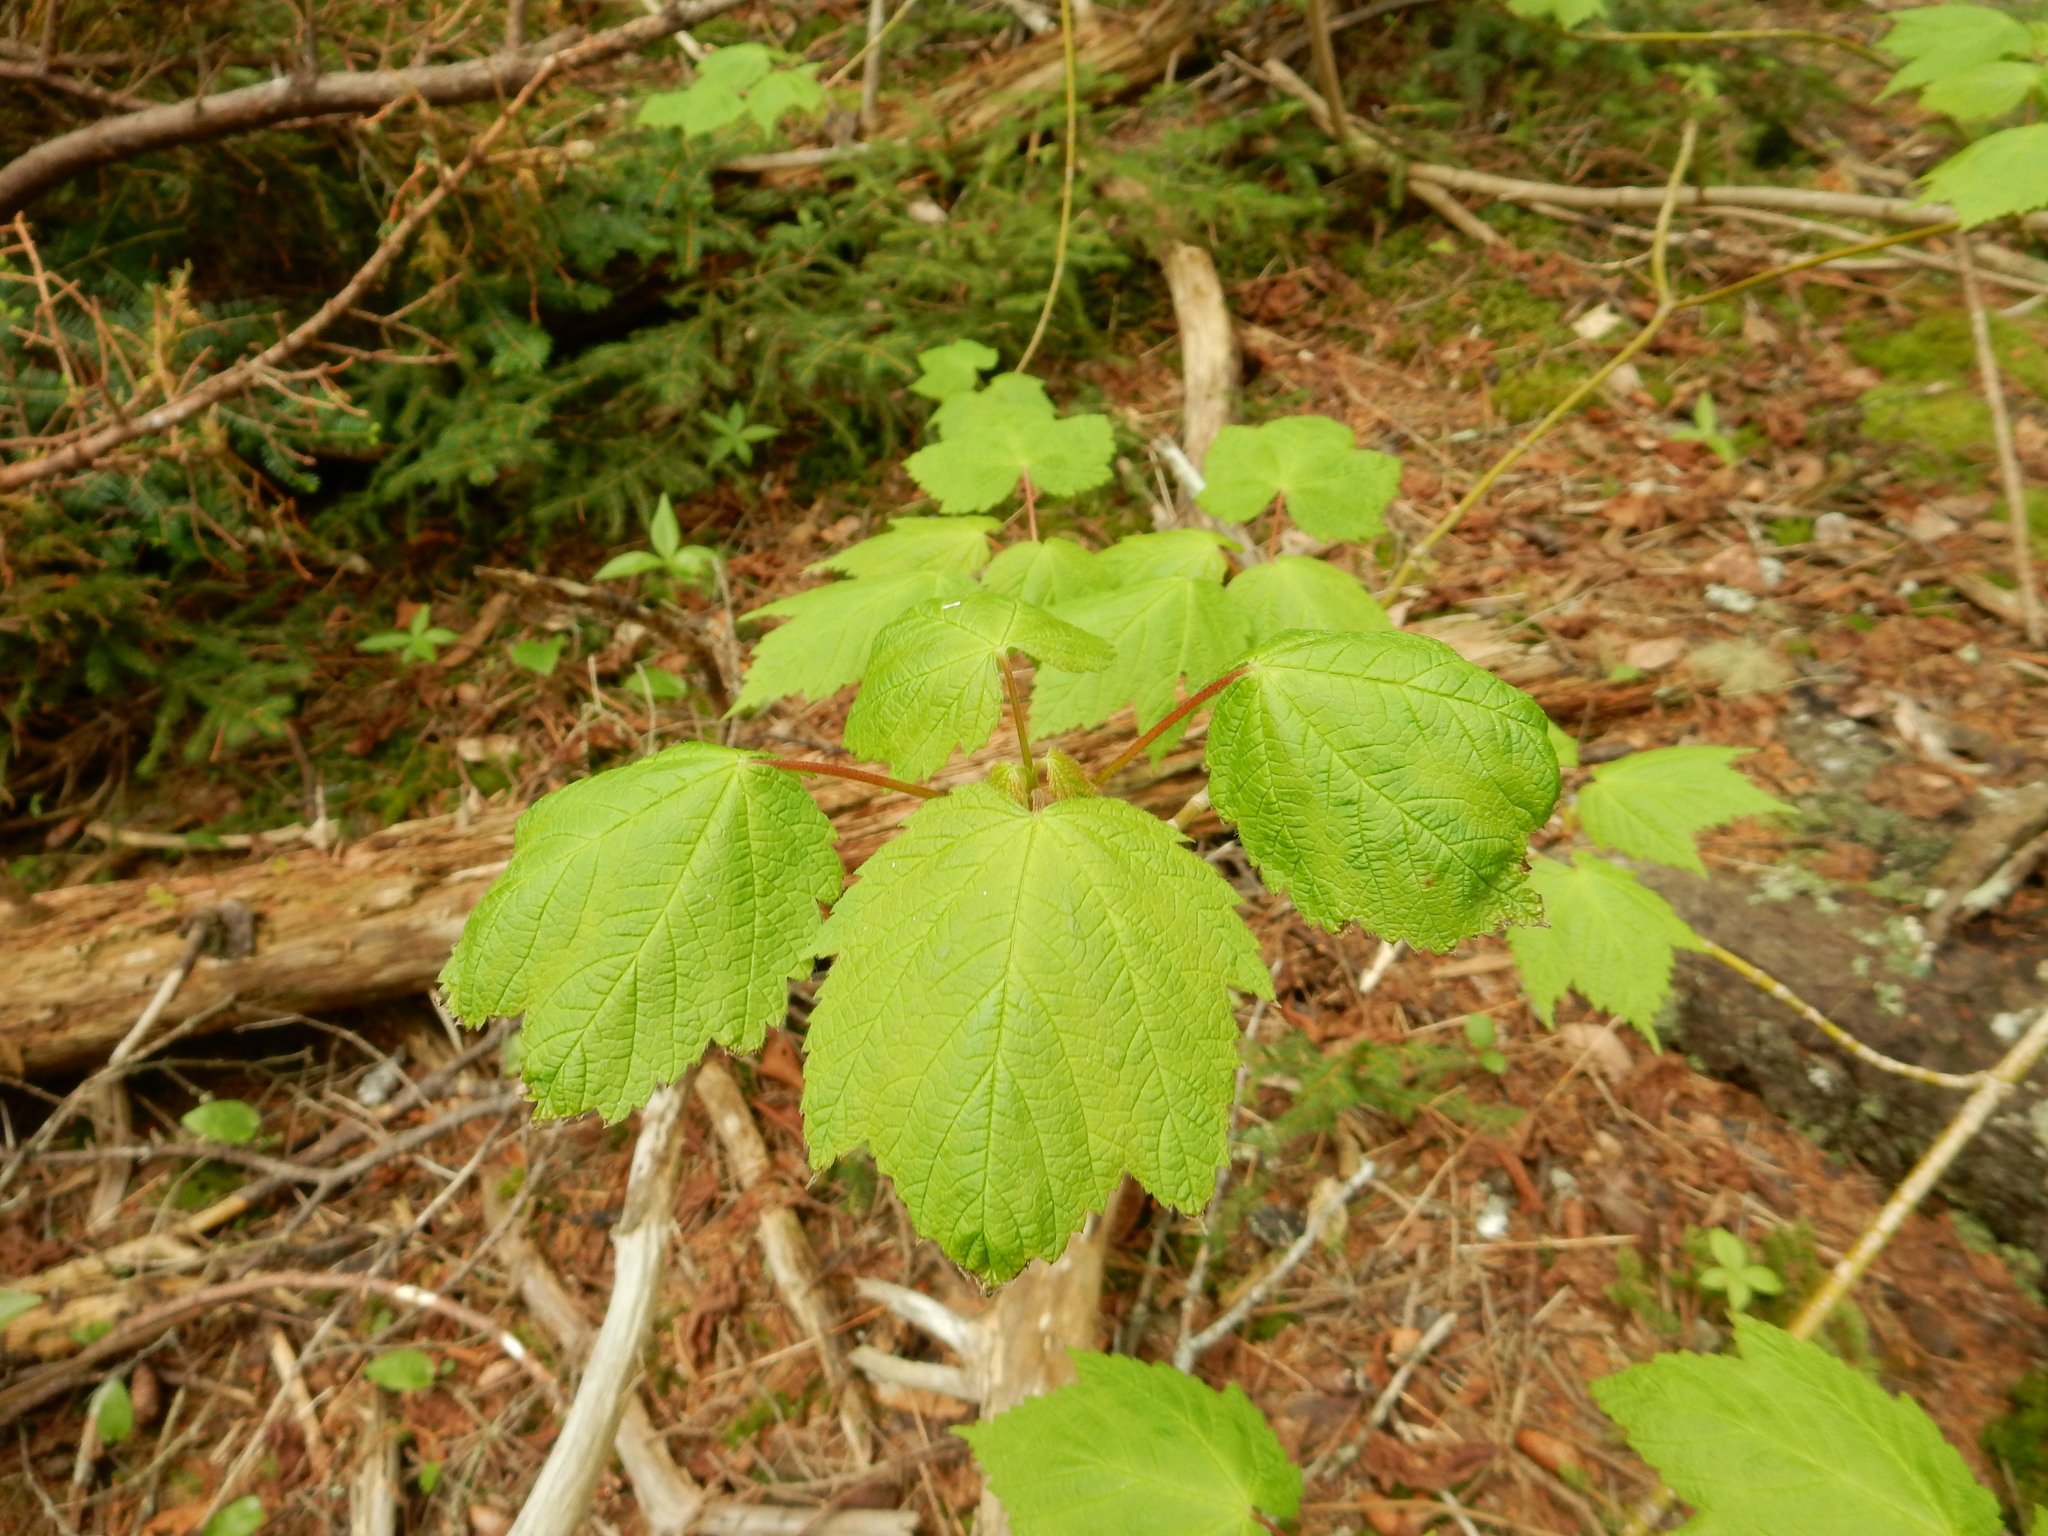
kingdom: Plantae
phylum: Tracheophyta
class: Magnoliopsida
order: Sapindales
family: Sapindaceae
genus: Acer
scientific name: Acer spicatum
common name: Mountain maple
